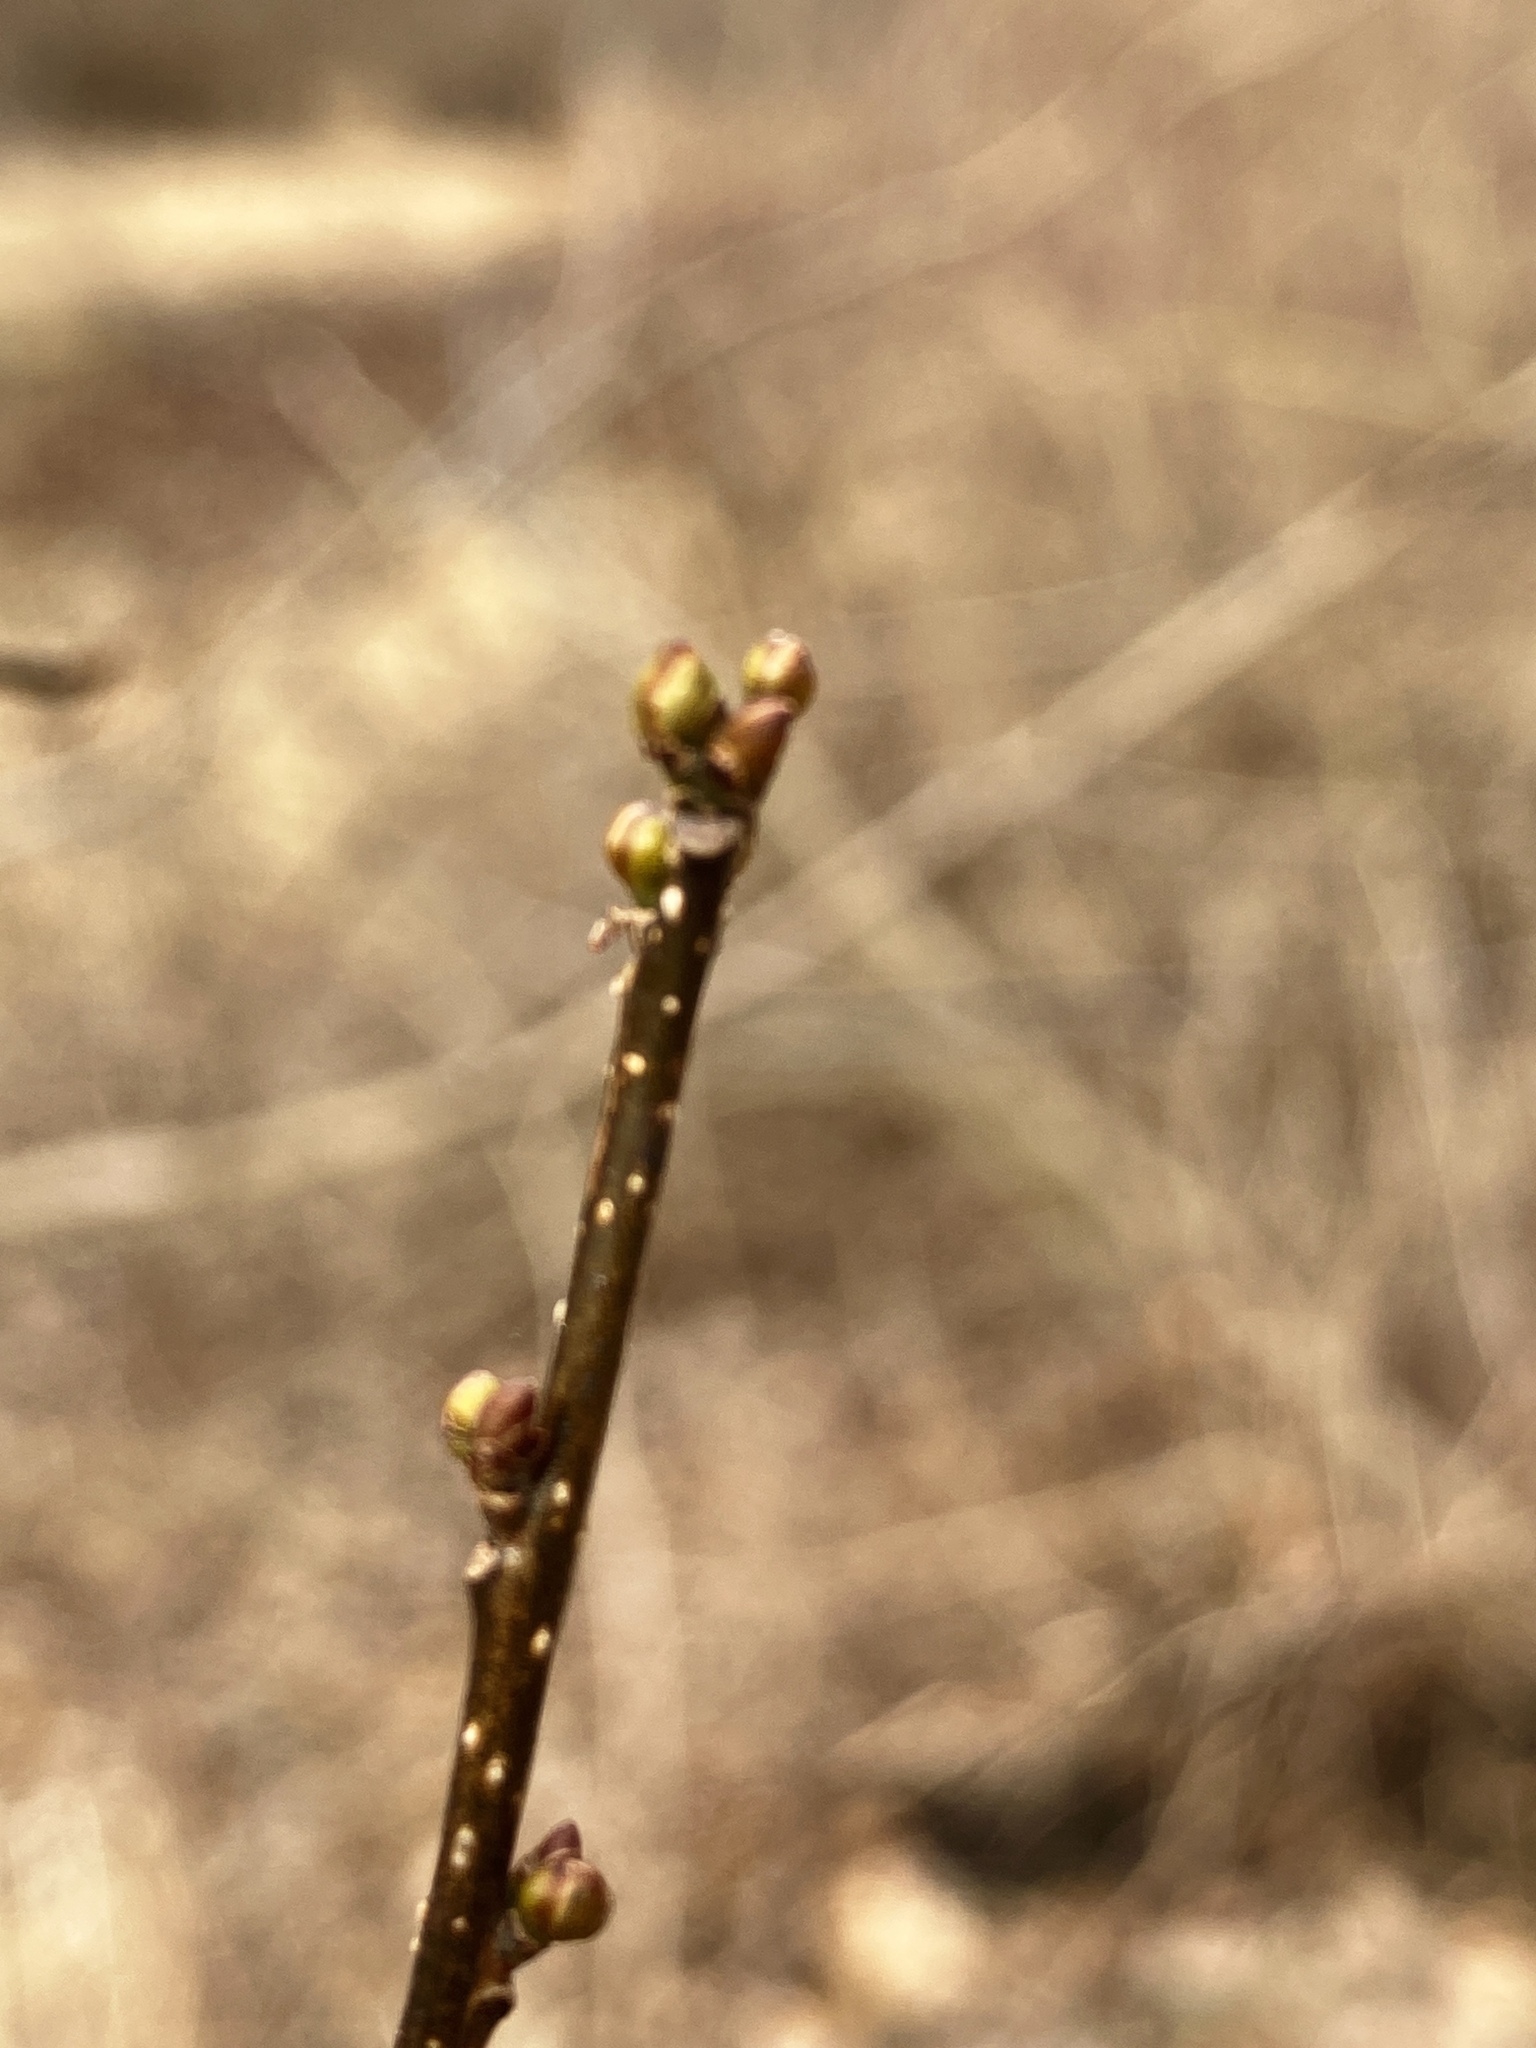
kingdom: Plantae
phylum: Tracheophyta
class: Magnoliopsida
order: Laurales
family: Lauraceae
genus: Lindera
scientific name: Lindera benzoin
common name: Spicebush
